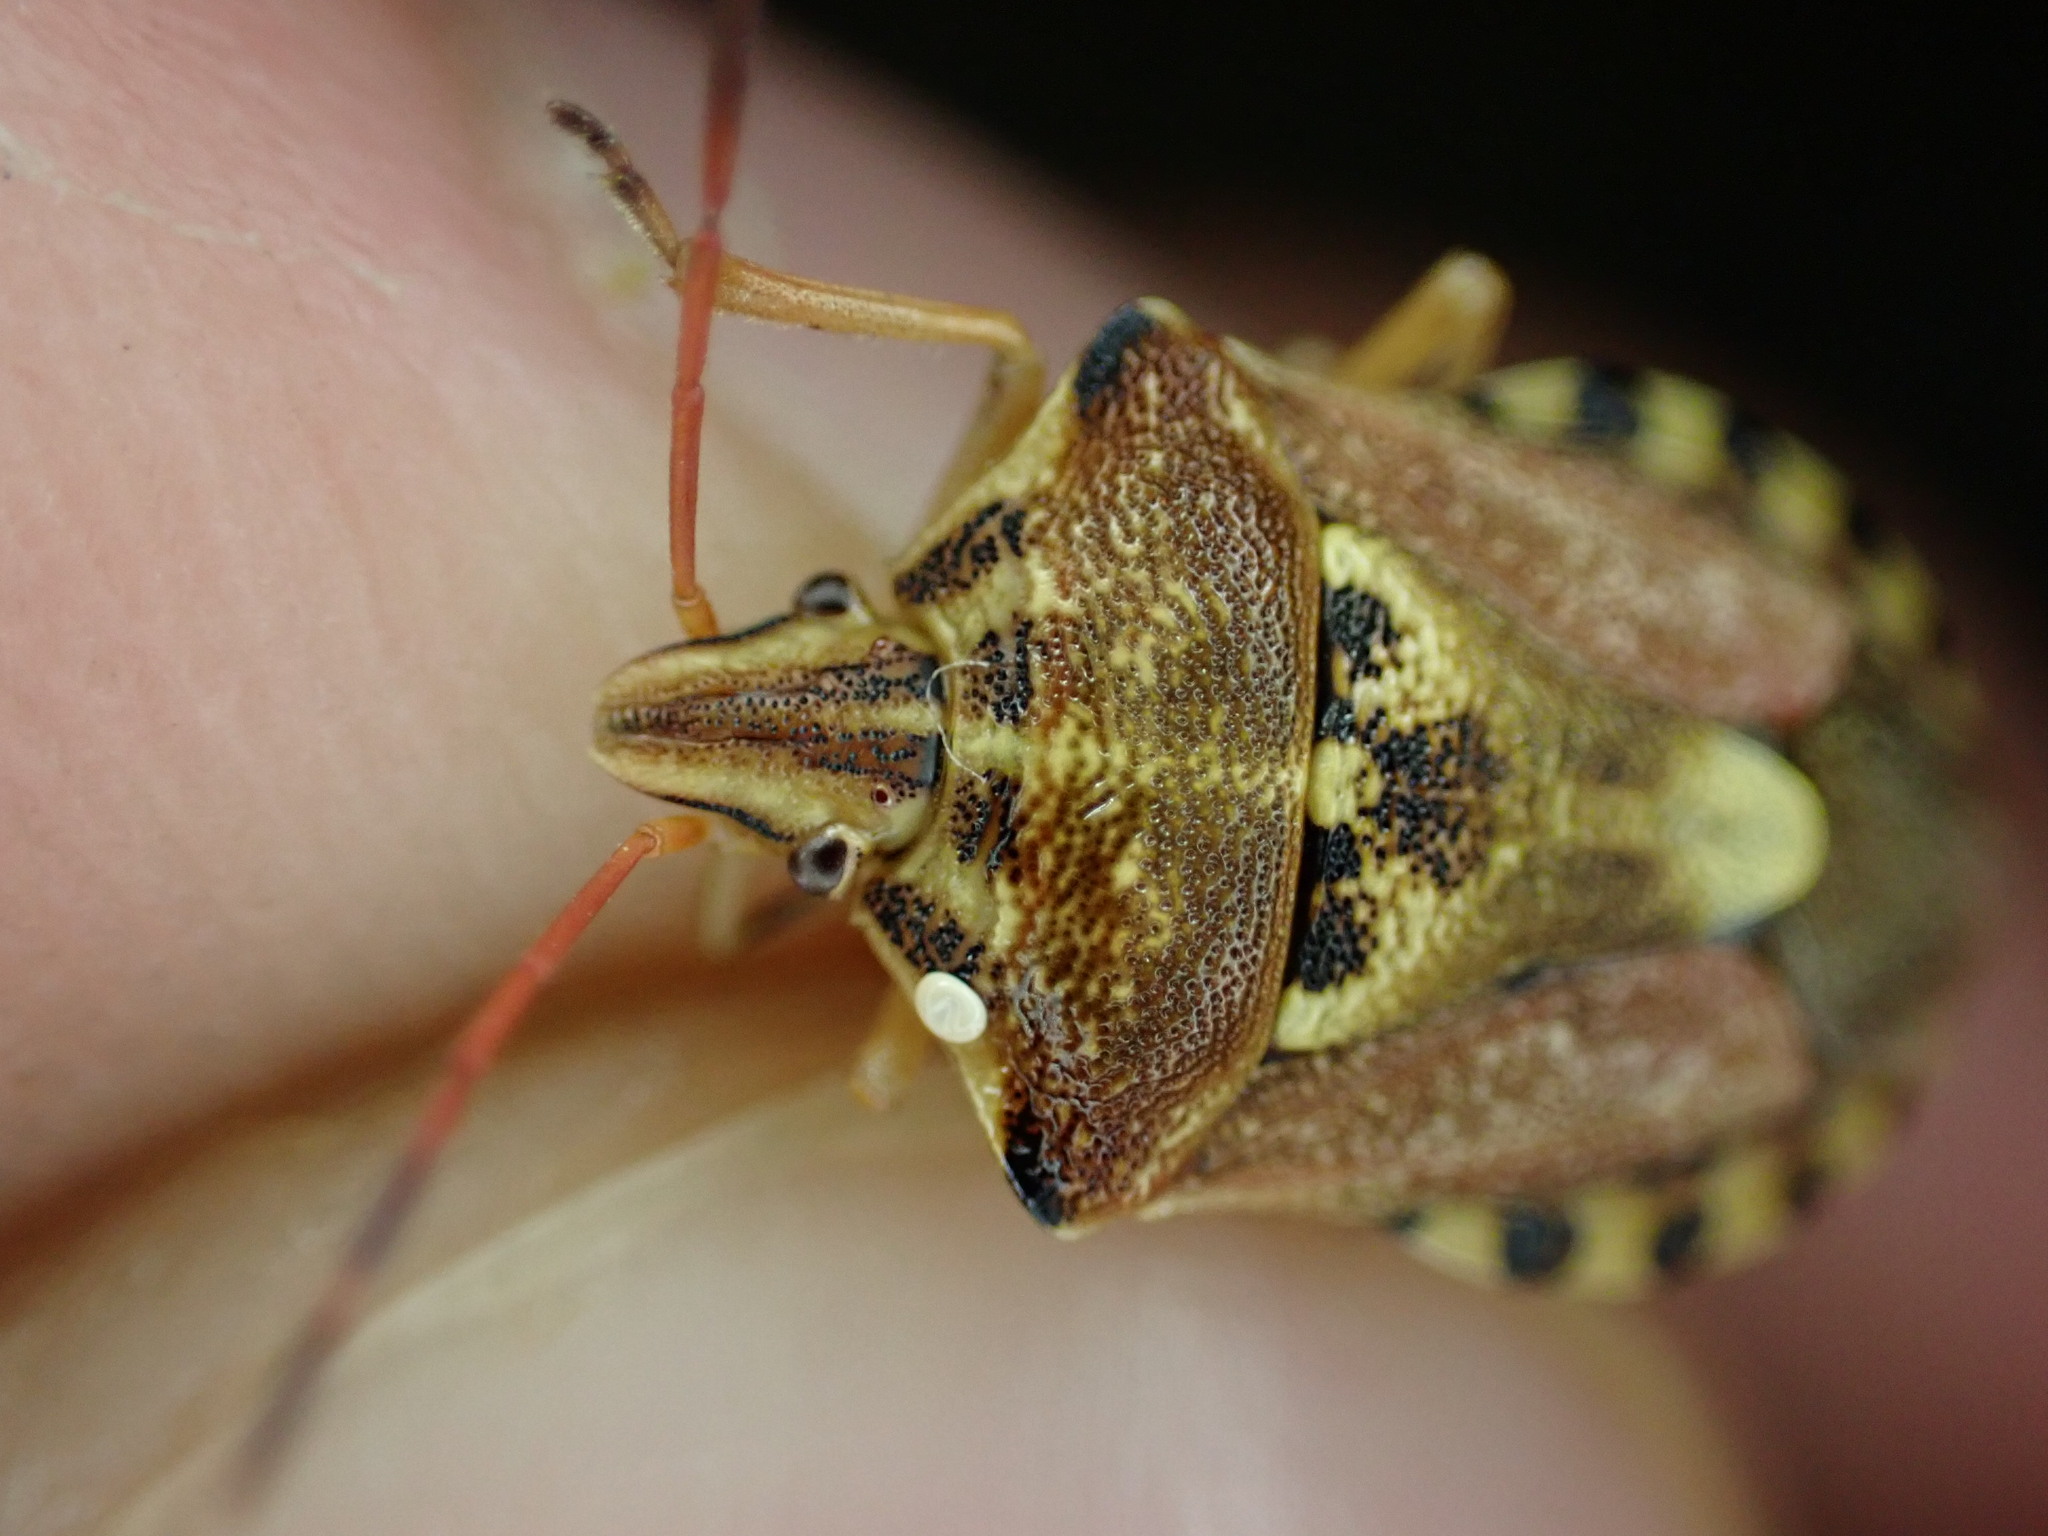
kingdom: Animalia
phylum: Arthropoda
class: Insecta
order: Hemiptera
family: Miridae
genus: Orthops
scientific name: Orthops kalmii
